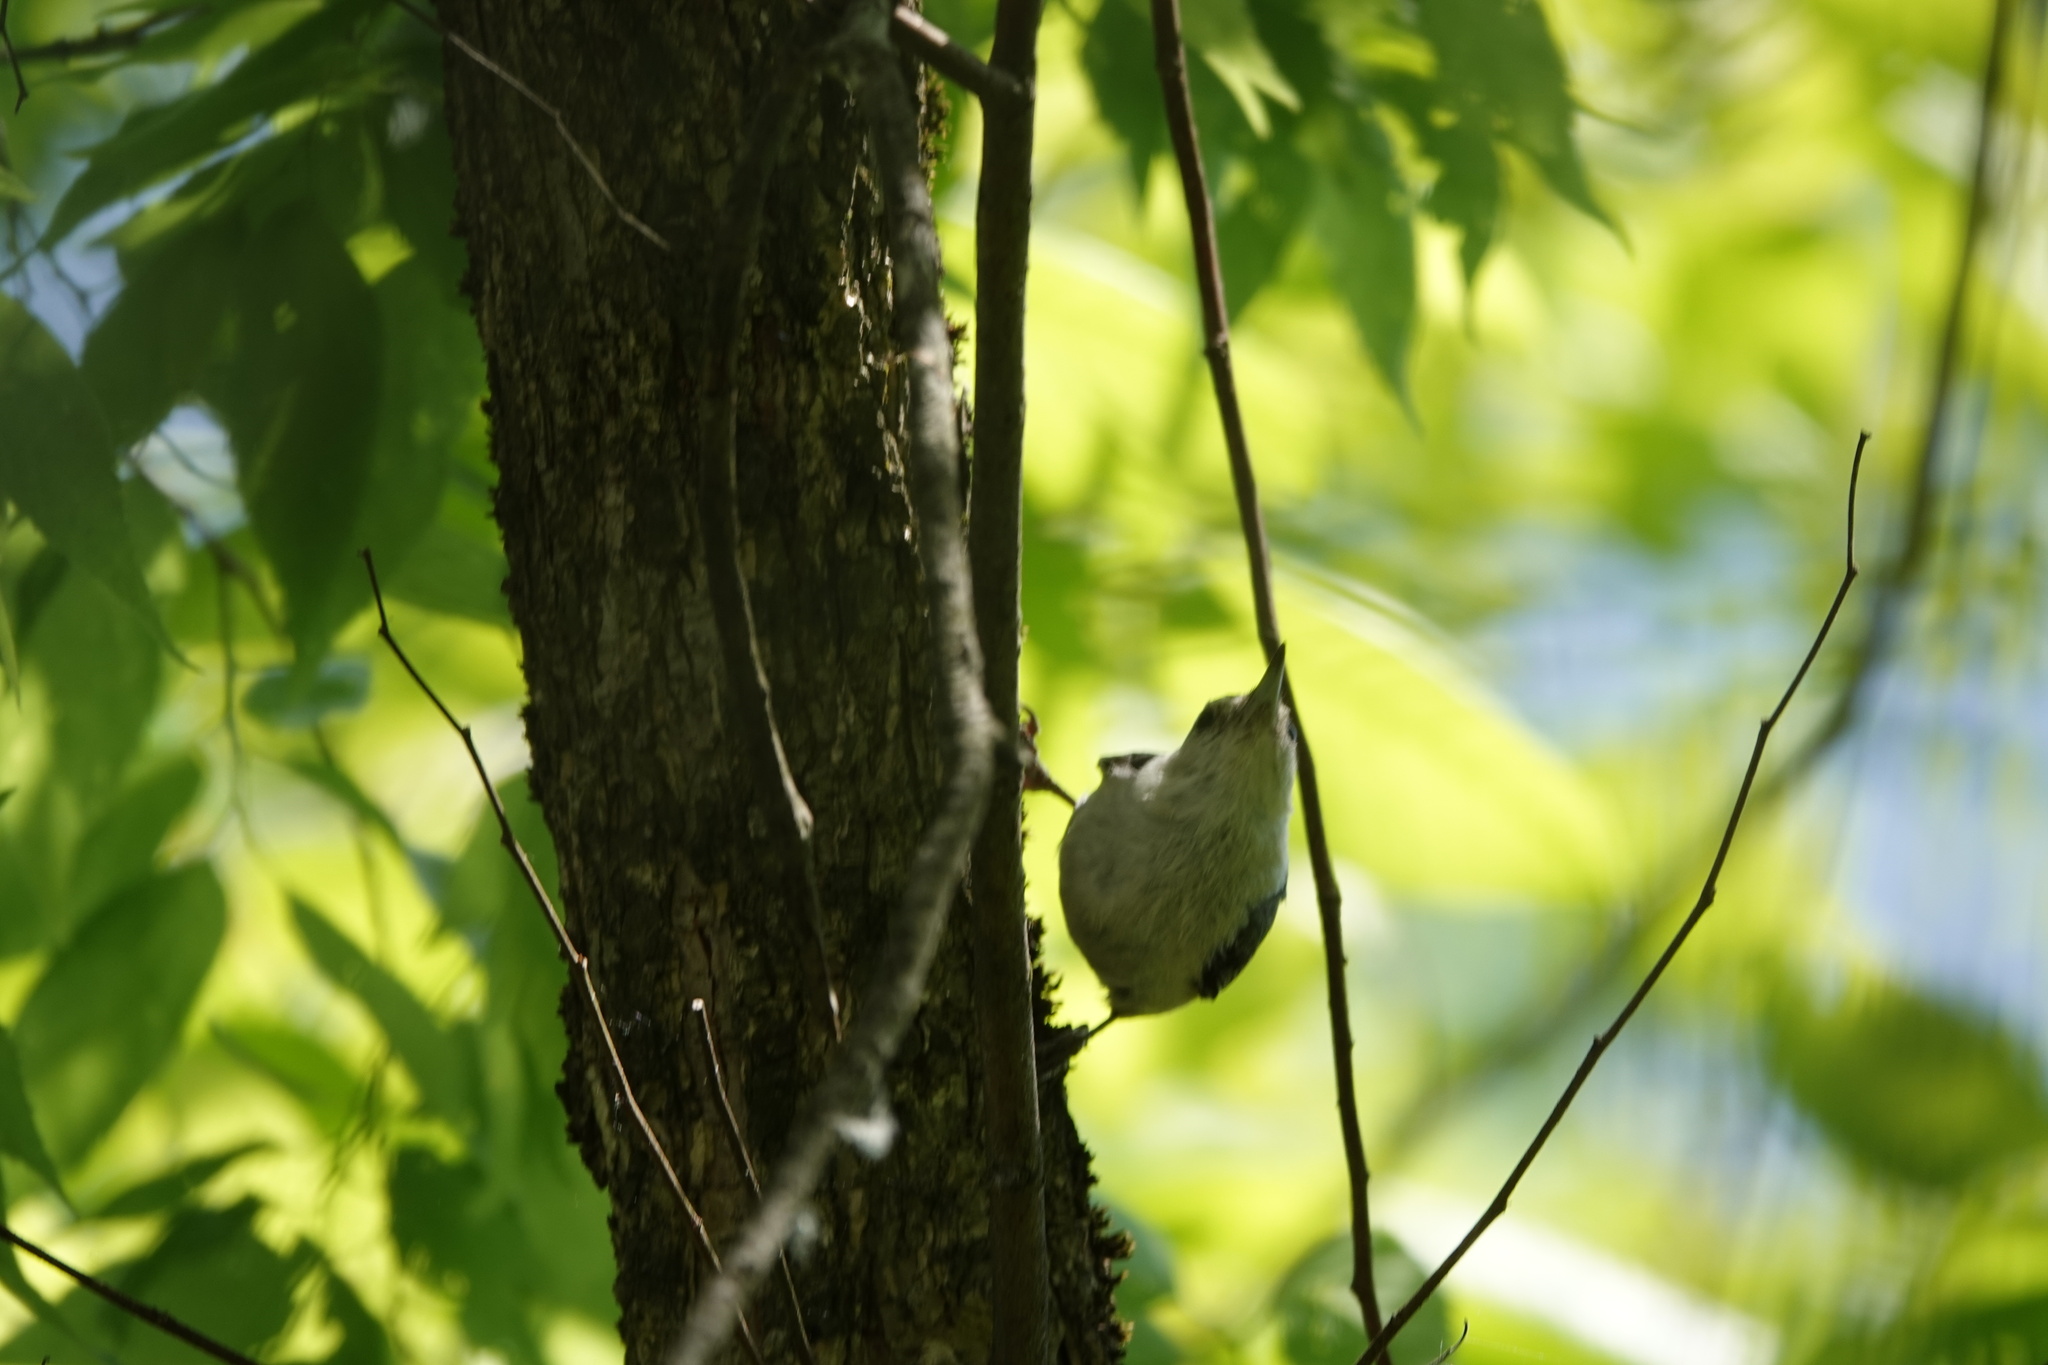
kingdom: Animalia
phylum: Chordata
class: Aves
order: Passeriformes
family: Sittidae
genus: Sitta
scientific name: Sitta carolinensis
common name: White-breasted nuthatch
